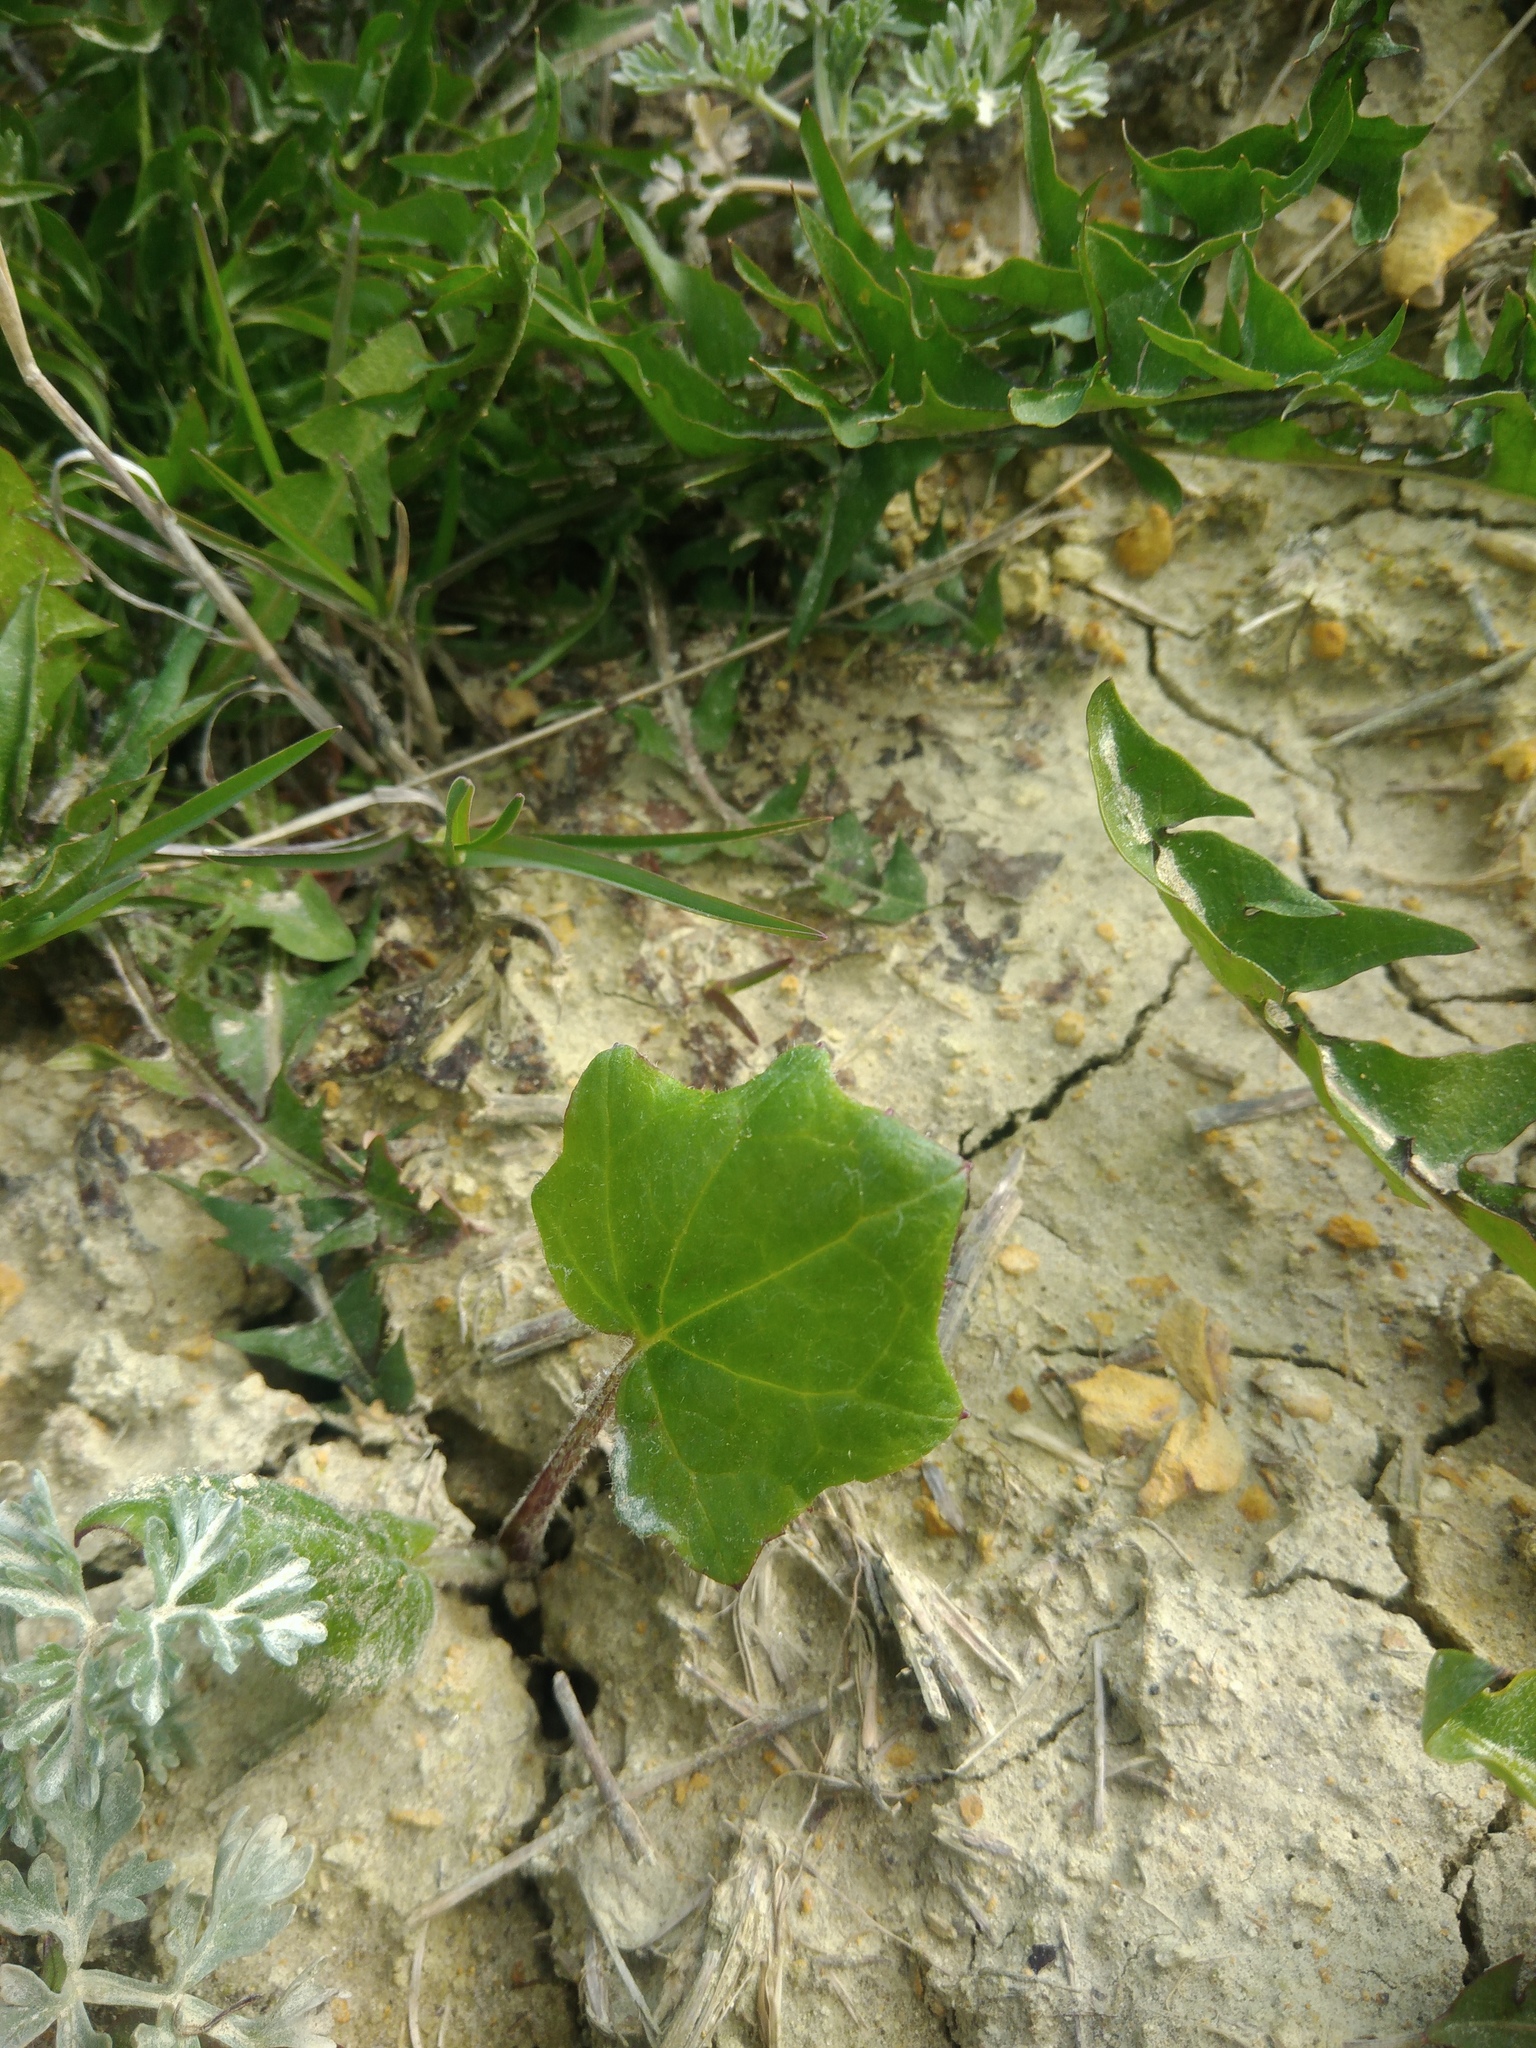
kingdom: Plantae
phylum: Tracheophyta
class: Magnoliopsida
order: Asterales
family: Asteraceae
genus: Tussilago
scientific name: Tussilago farfara
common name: Coltsfoot
